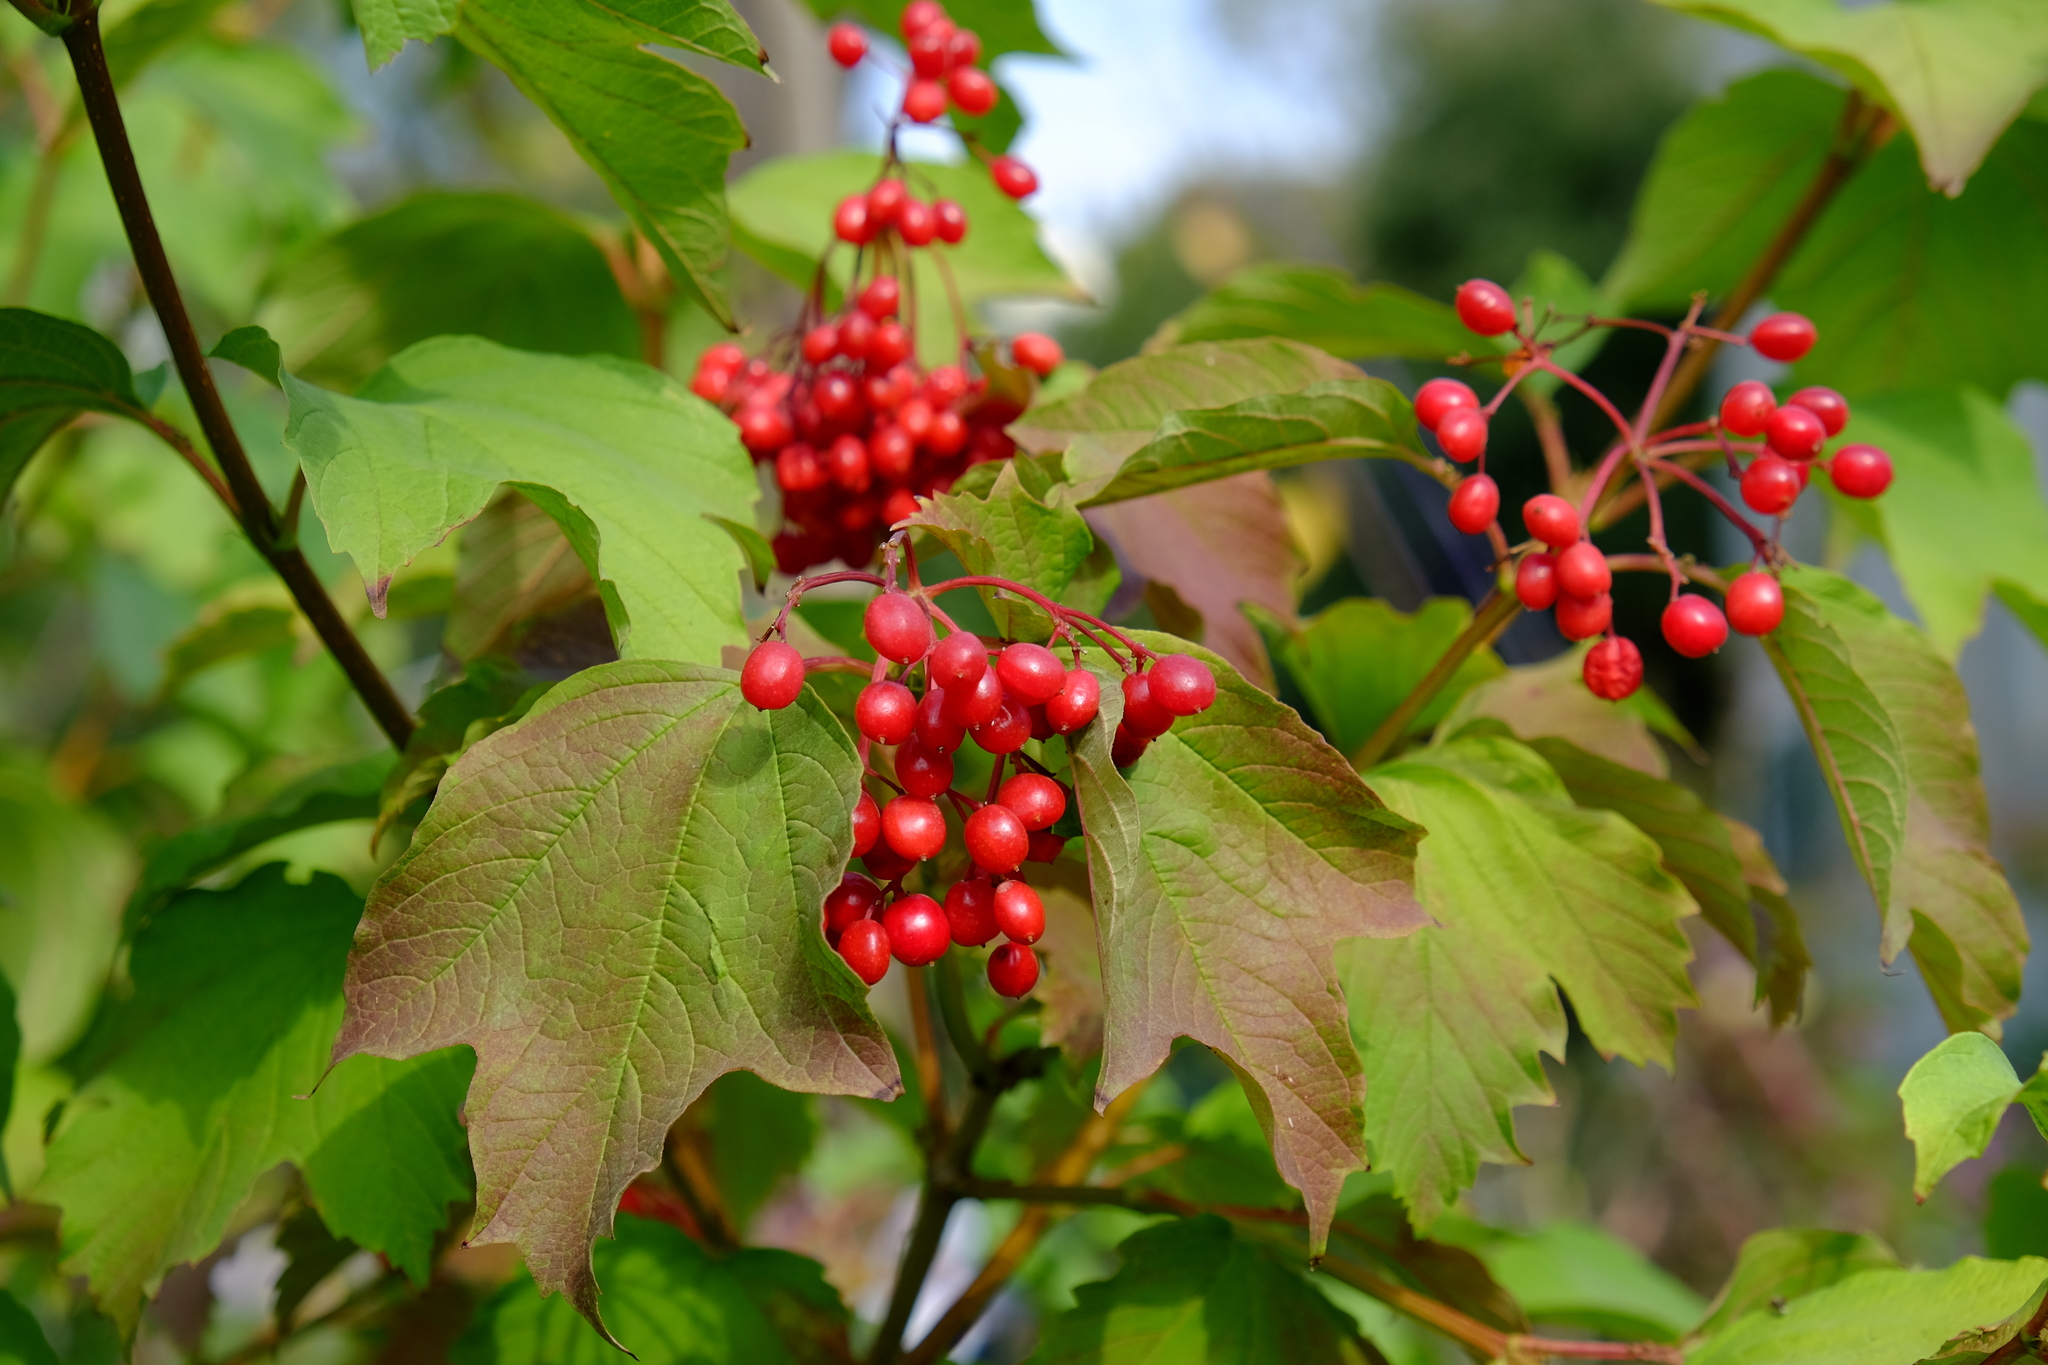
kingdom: Plantae
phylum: Tracheophyta
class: Magnoliopsida
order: Dipsacales
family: Viburnaceae
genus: Viburnum
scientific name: Viburnum opulus
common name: Guelder-rose
